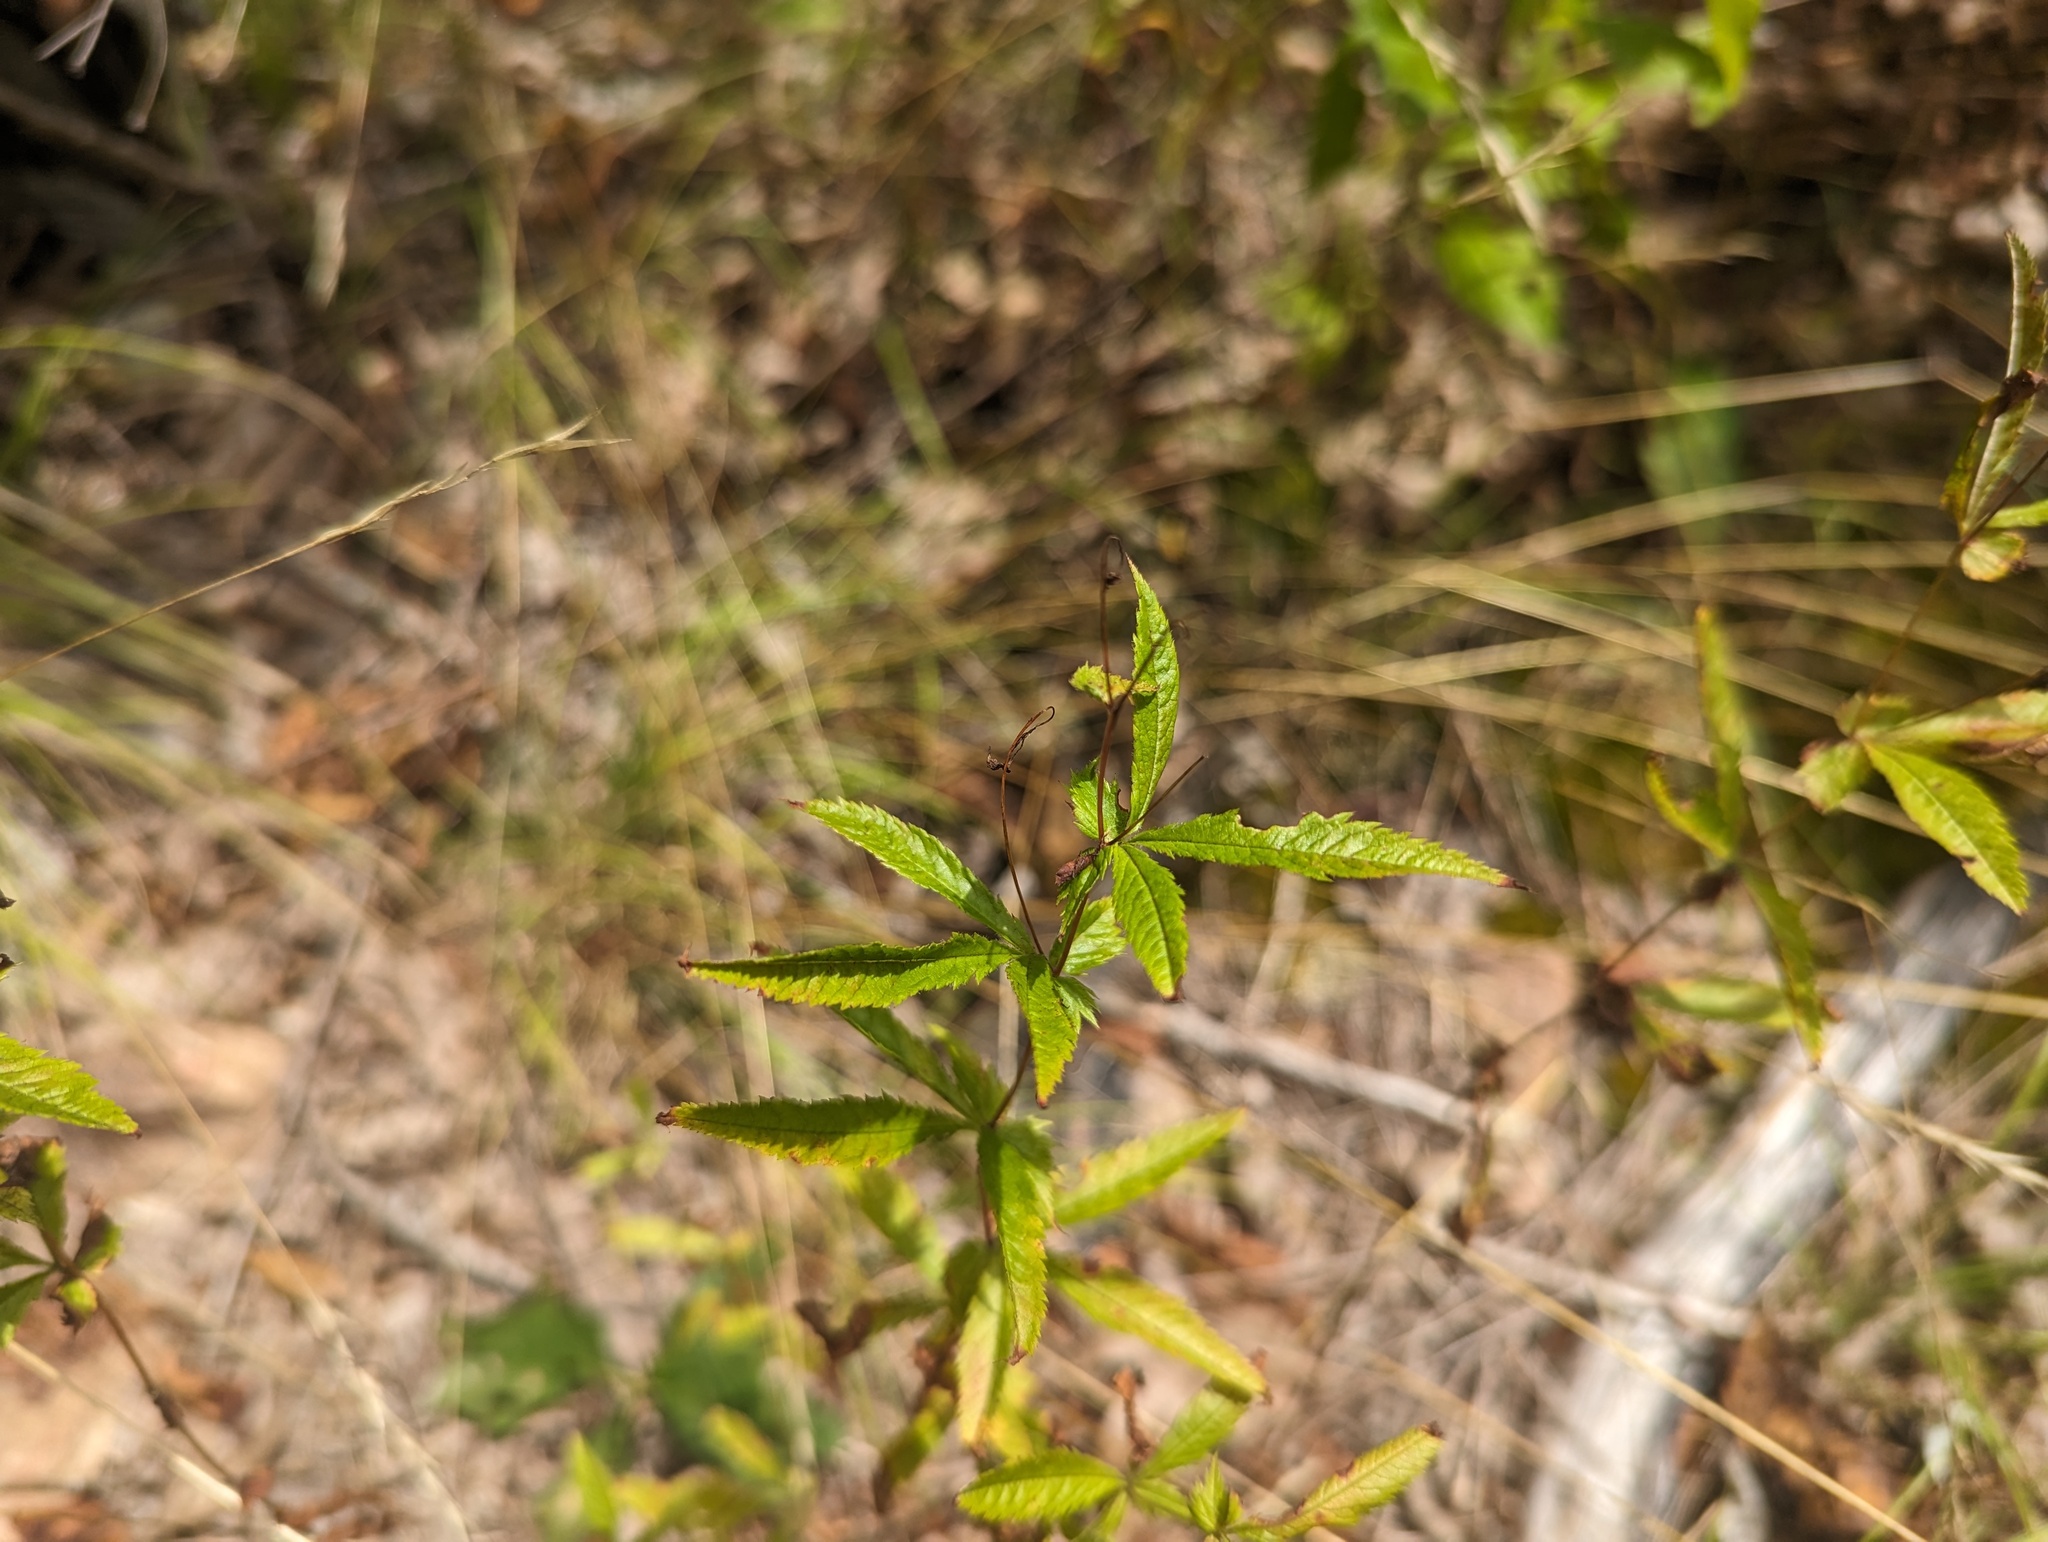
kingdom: Plantae
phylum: Tracheophyta
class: Magnoliopsida
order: Rosales
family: Rosaceae
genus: Gillenia
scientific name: Gillenia stipulata
